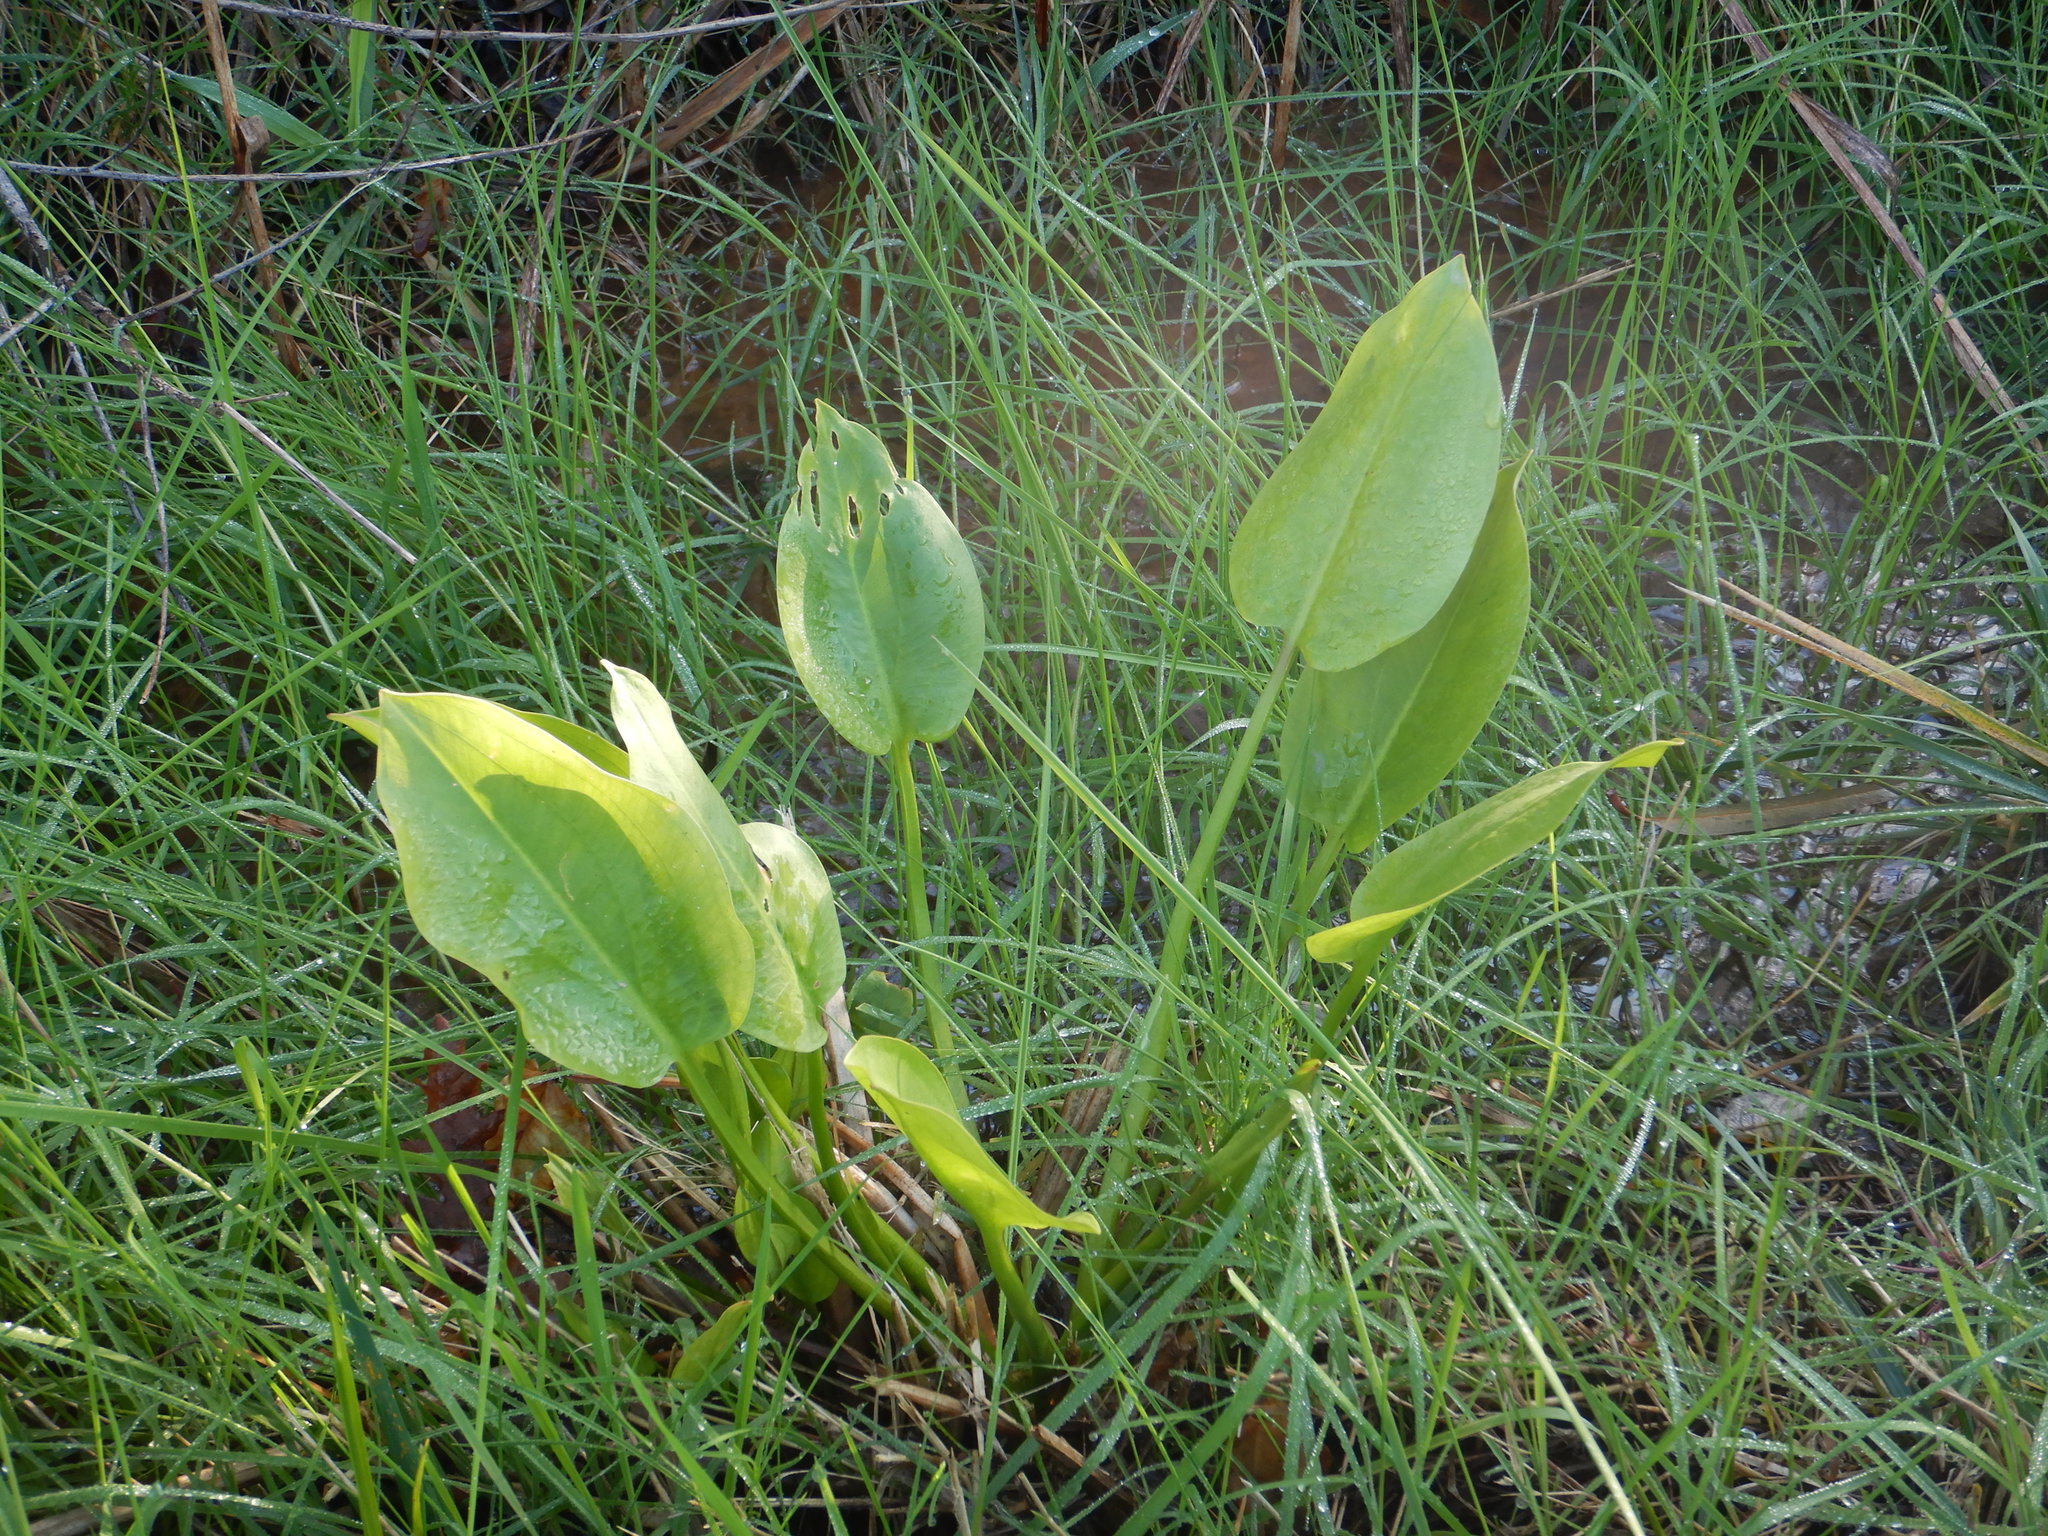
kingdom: Plantae
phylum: Tracheophyta
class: Liliopsida
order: Alismatales
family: Alismataceae
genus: Alisma
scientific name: Alisma plantago-aquatica
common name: Water-plantain
